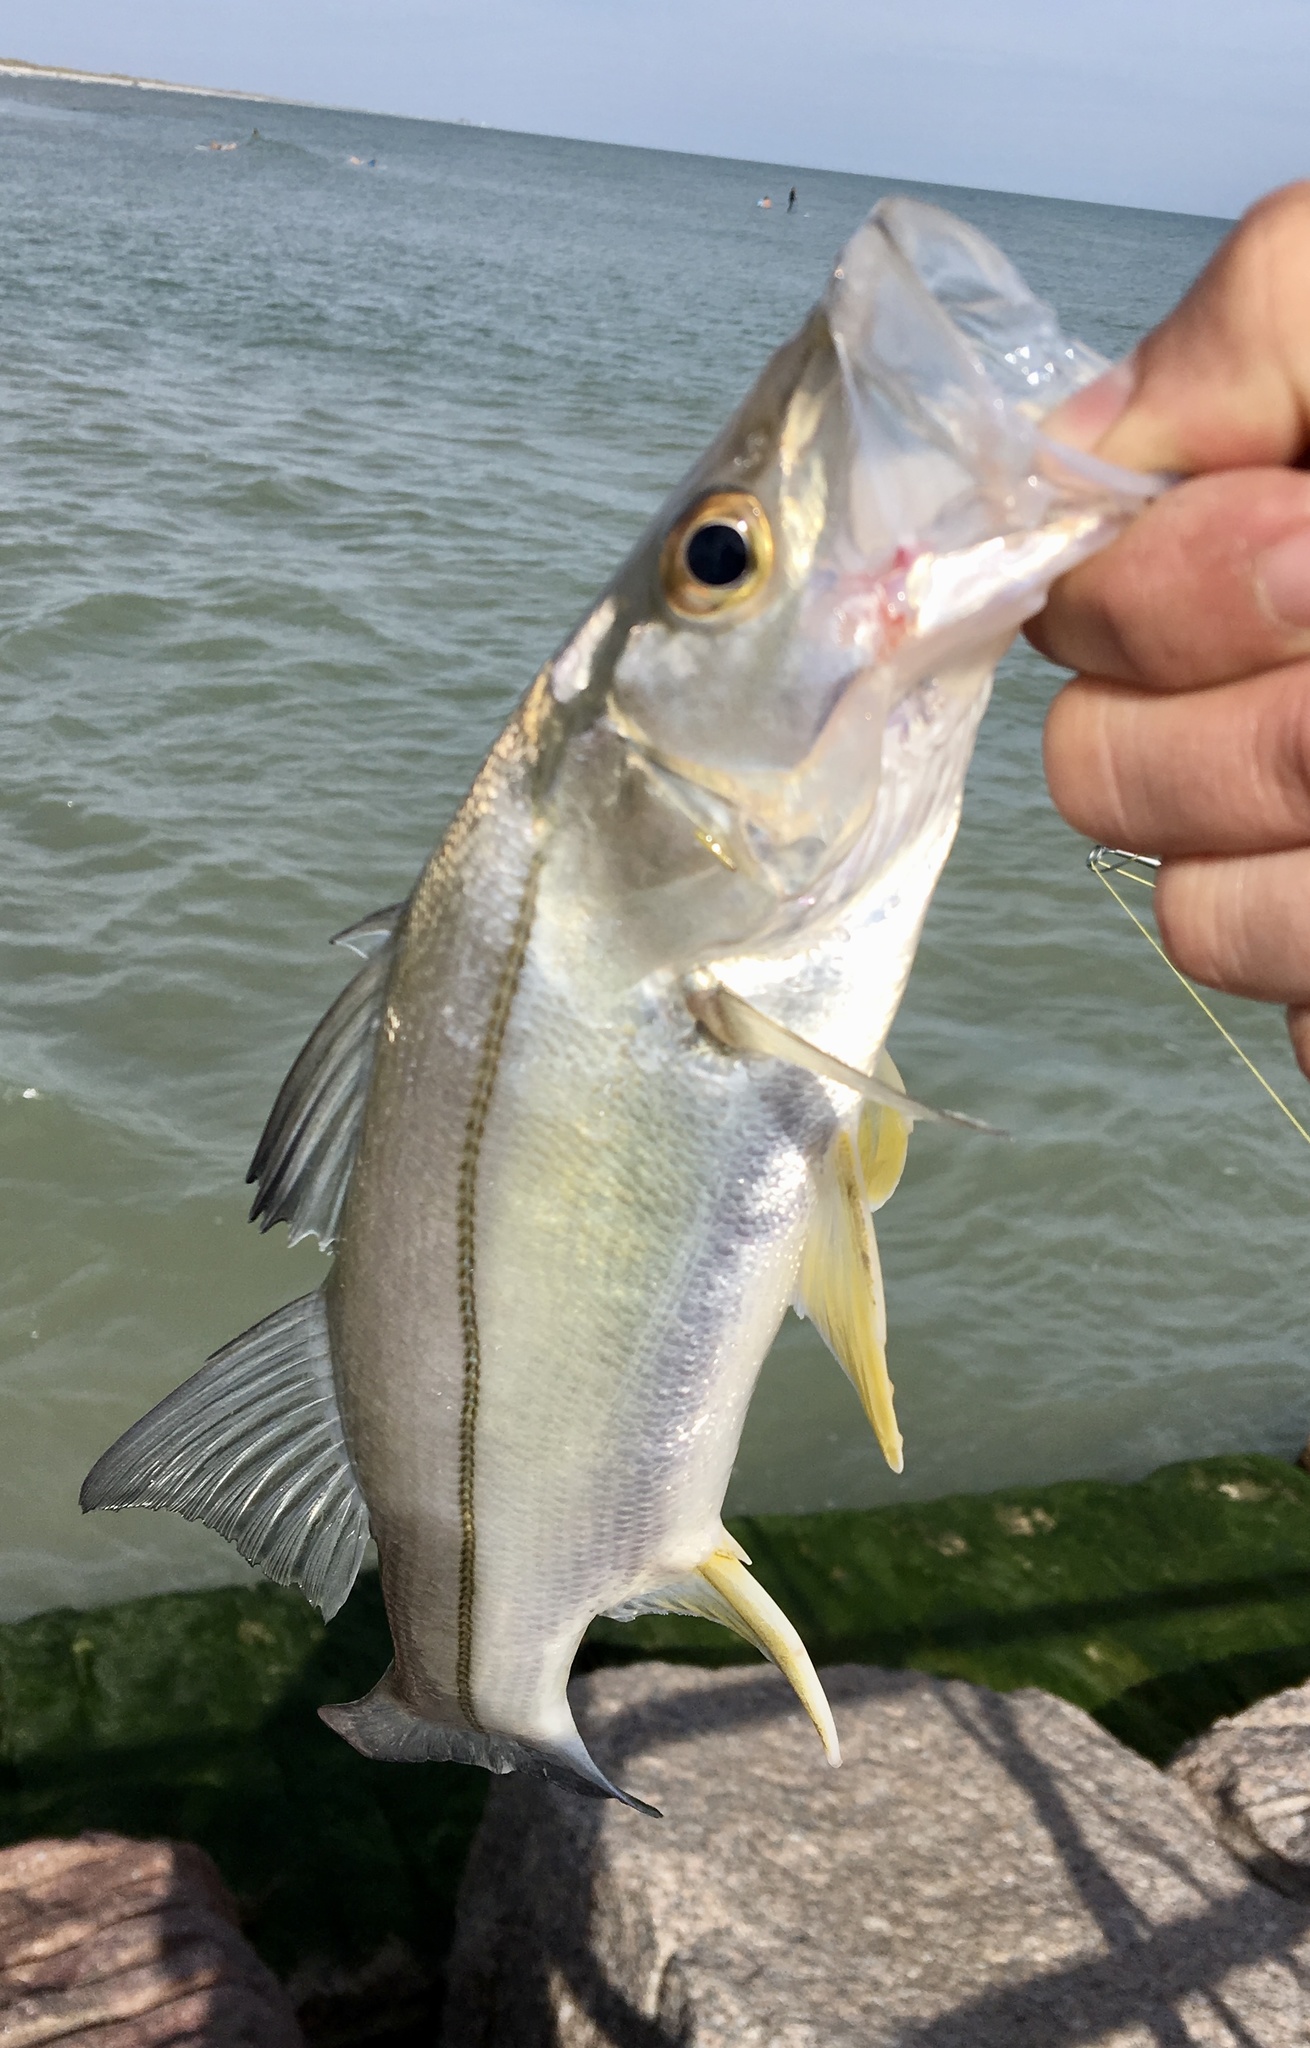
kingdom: Animalia
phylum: Chordata
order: Perciformes
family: Centropomidae
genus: Centropomus
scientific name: Centropomus undecimalis
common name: Snook
